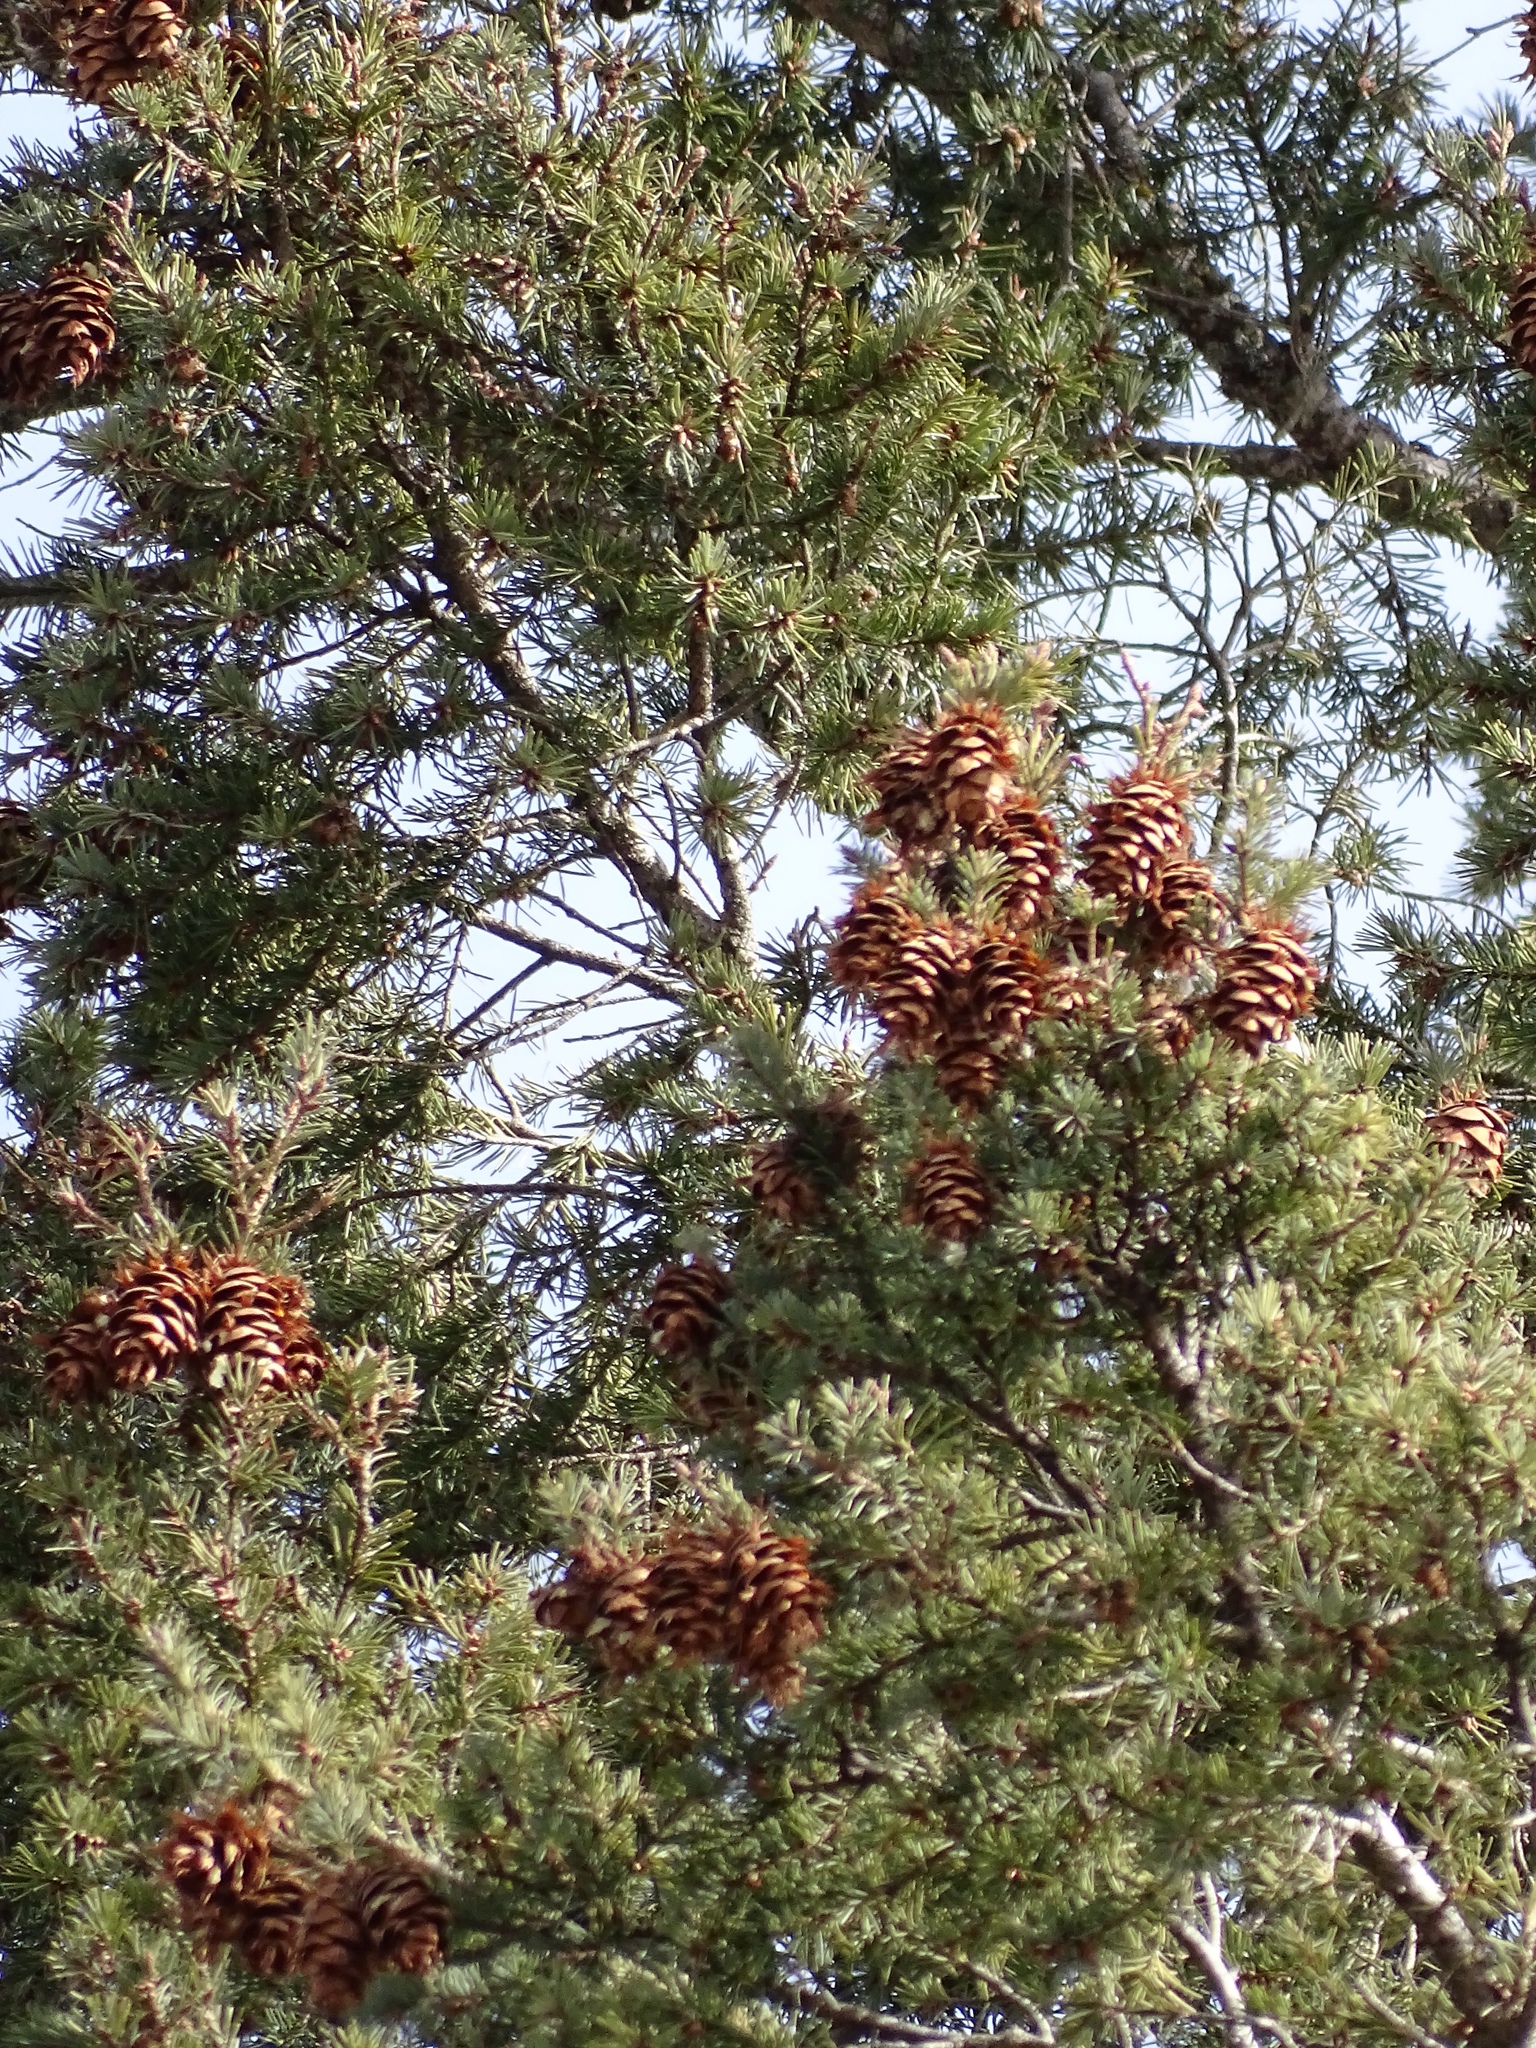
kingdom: Plantae
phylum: Tracheophyta
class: Pinopsida
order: Pinales
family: Pinaceae
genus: Pseudotsuga
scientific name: Pseudotsuga menziesii
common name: Douglas fir
